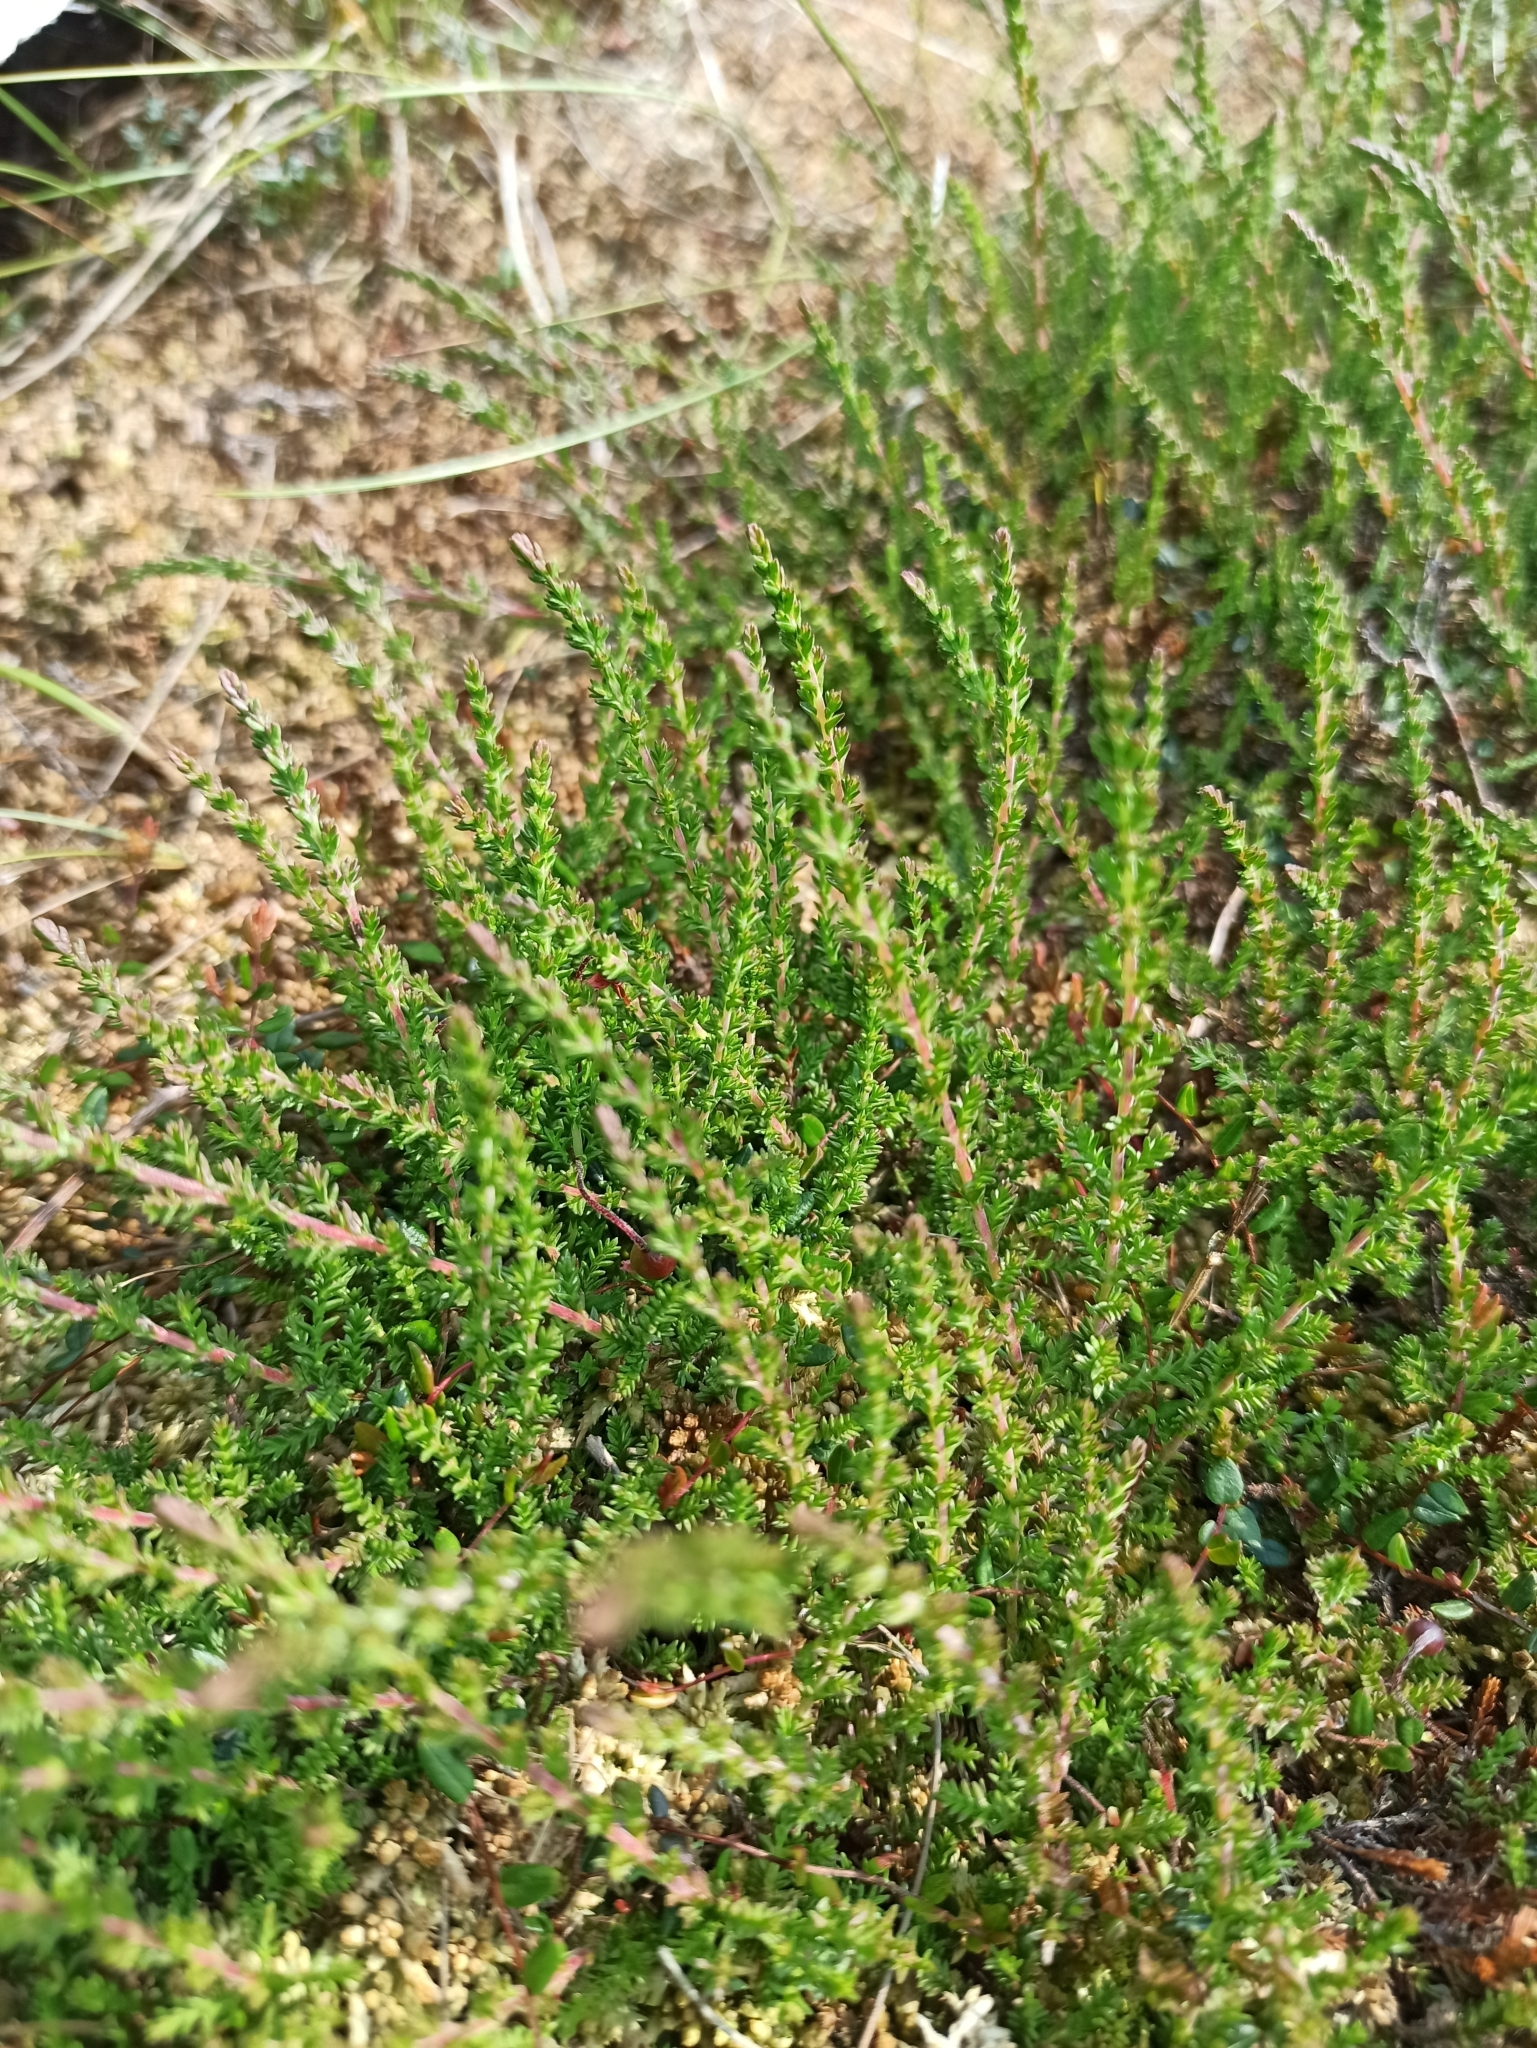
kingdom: Plantae
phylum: Tracheophyta
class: Magnoliopsida
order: Ericales
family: Ericaceae
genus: Calluna
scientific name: Calluna vulgaris
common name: Heather
